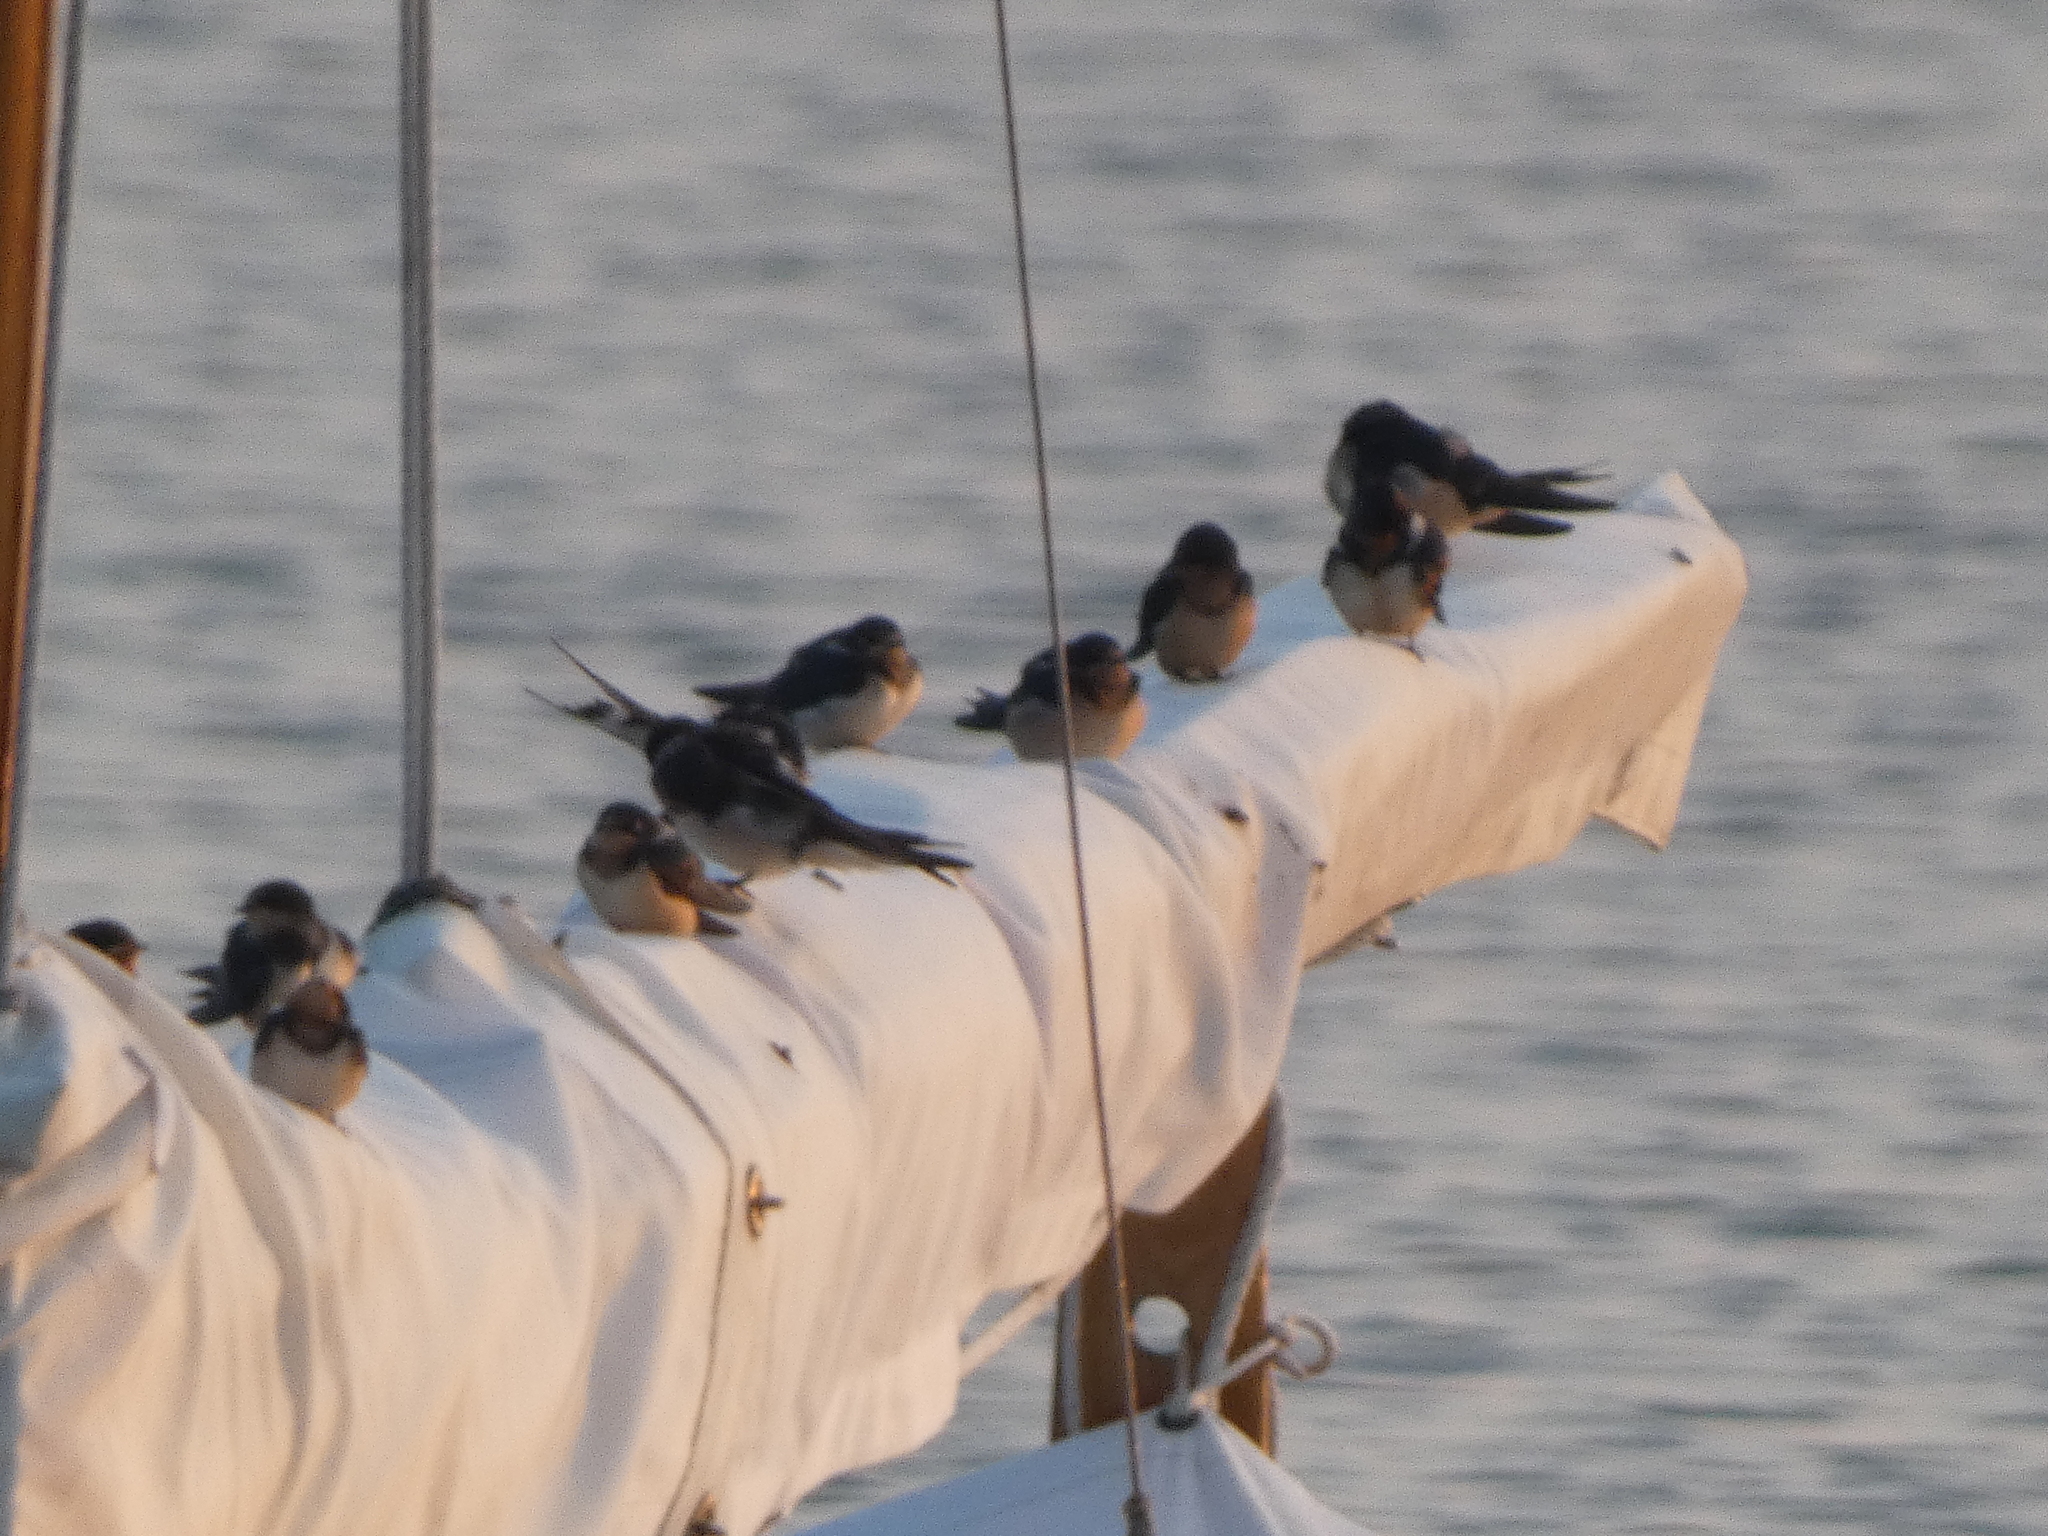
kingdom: Animalia
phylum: Chordata
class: Aves
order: Passeriformes
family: Hirundinidae
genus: Hirundo
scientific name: Hirundo rustica
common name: Barn swallow
